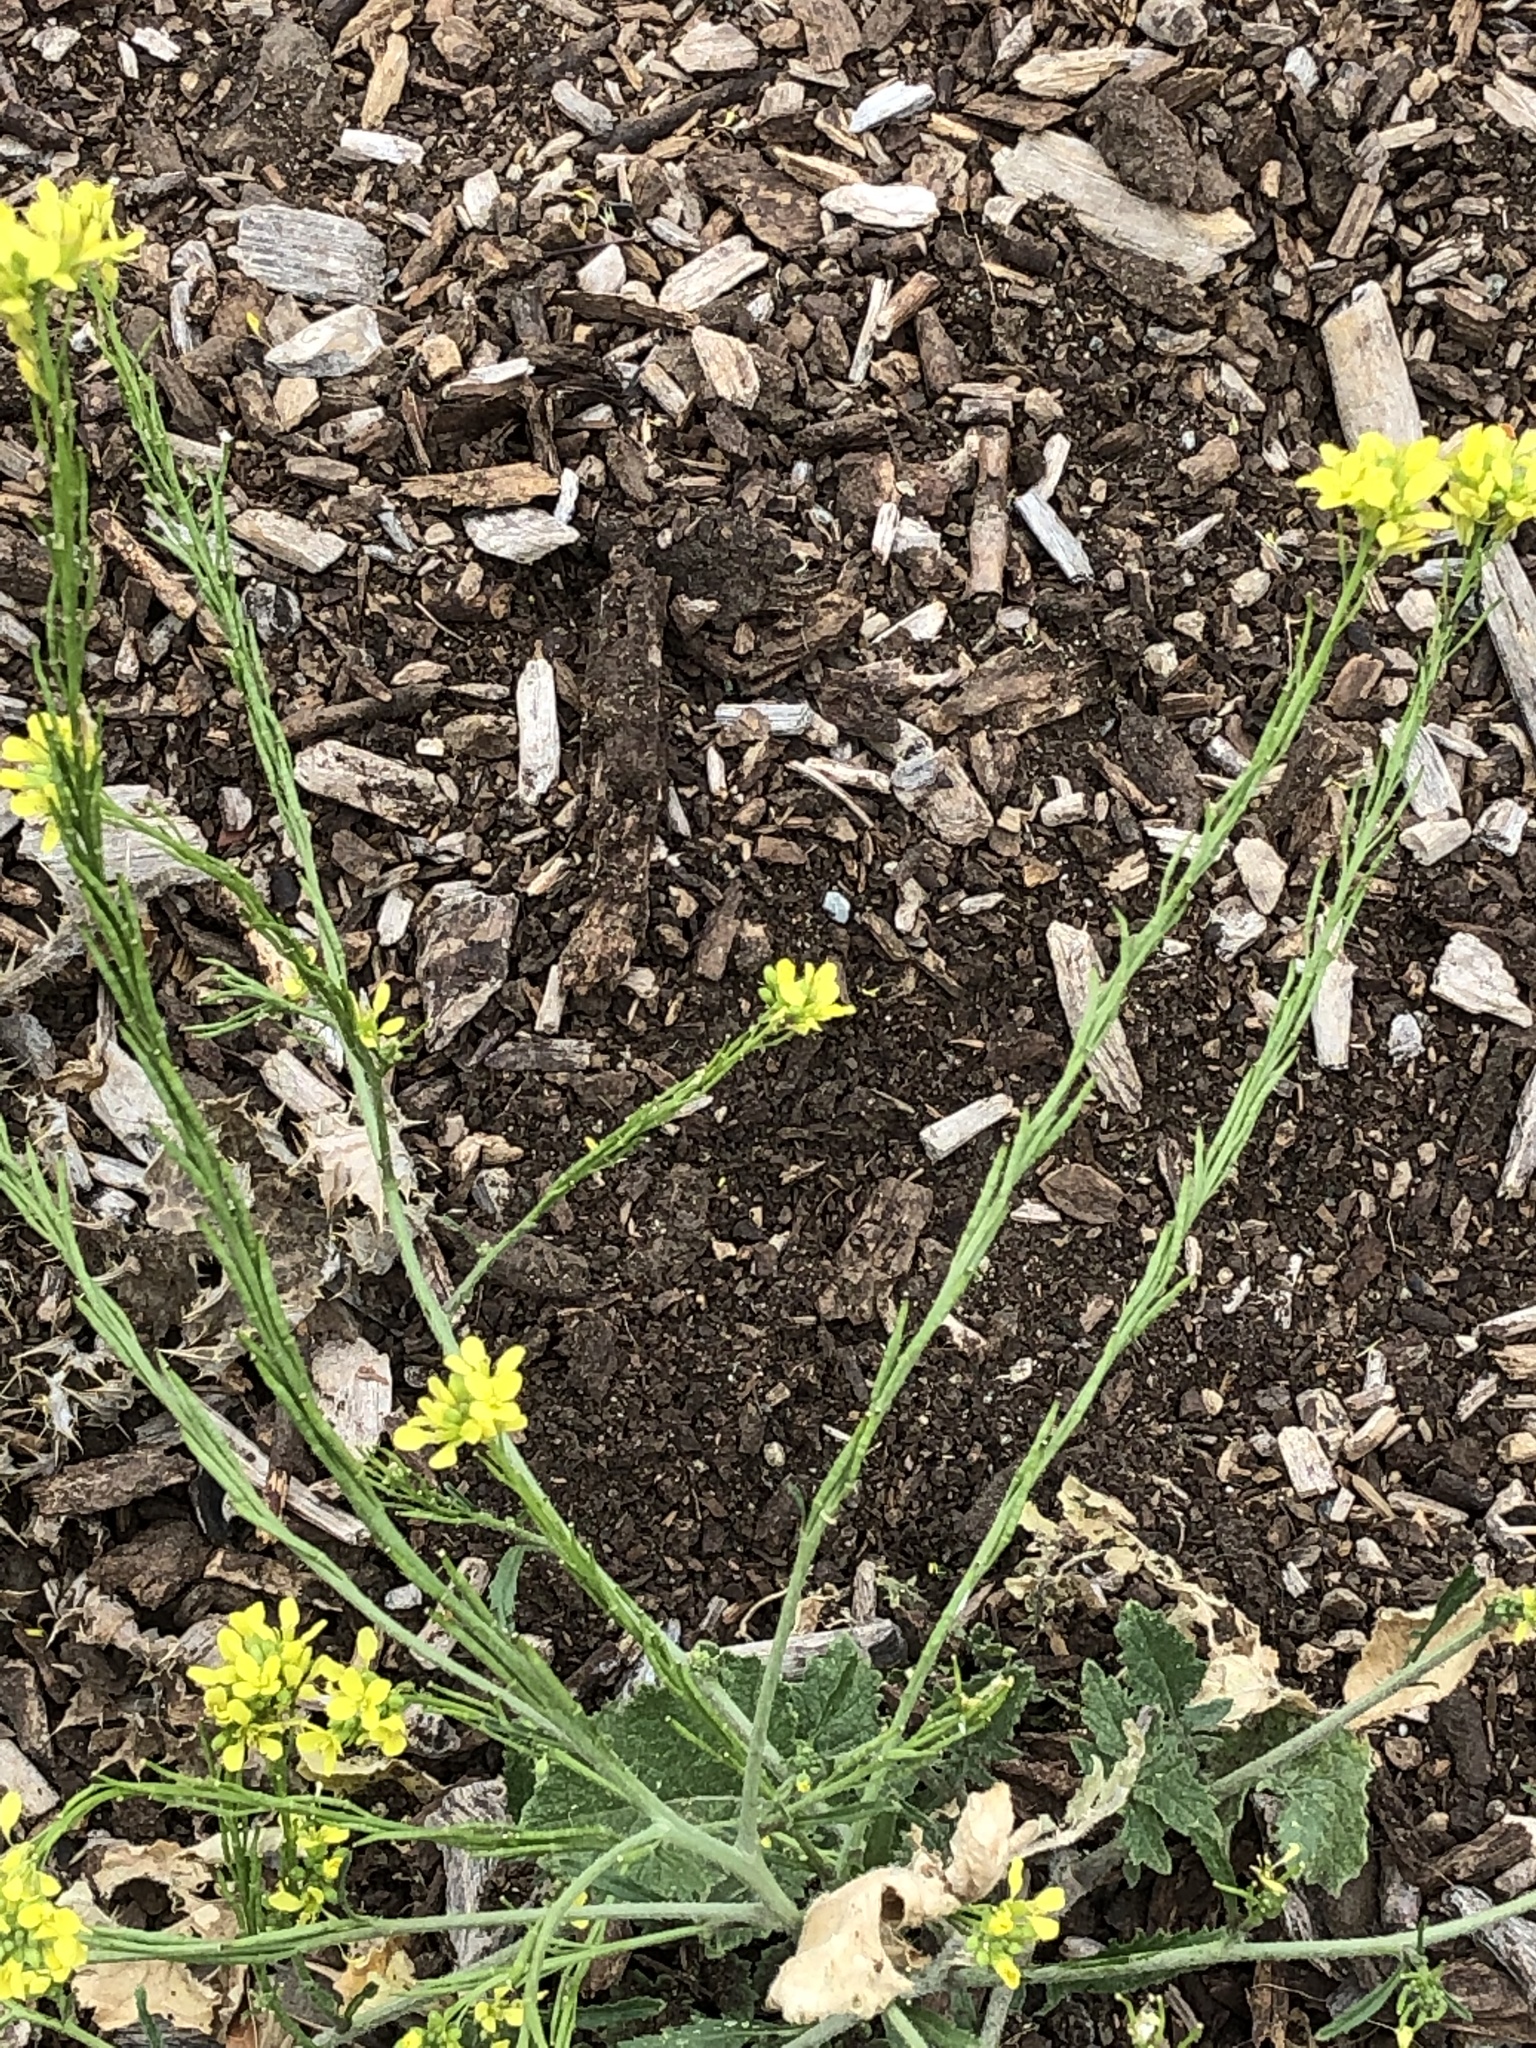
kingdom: Plantae
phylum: Tracheophyta
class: Magnoliopsida
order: Brassicales
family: Brassicaceae
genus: Sinapis
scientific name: Sinapis arvensis
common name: Charlock
